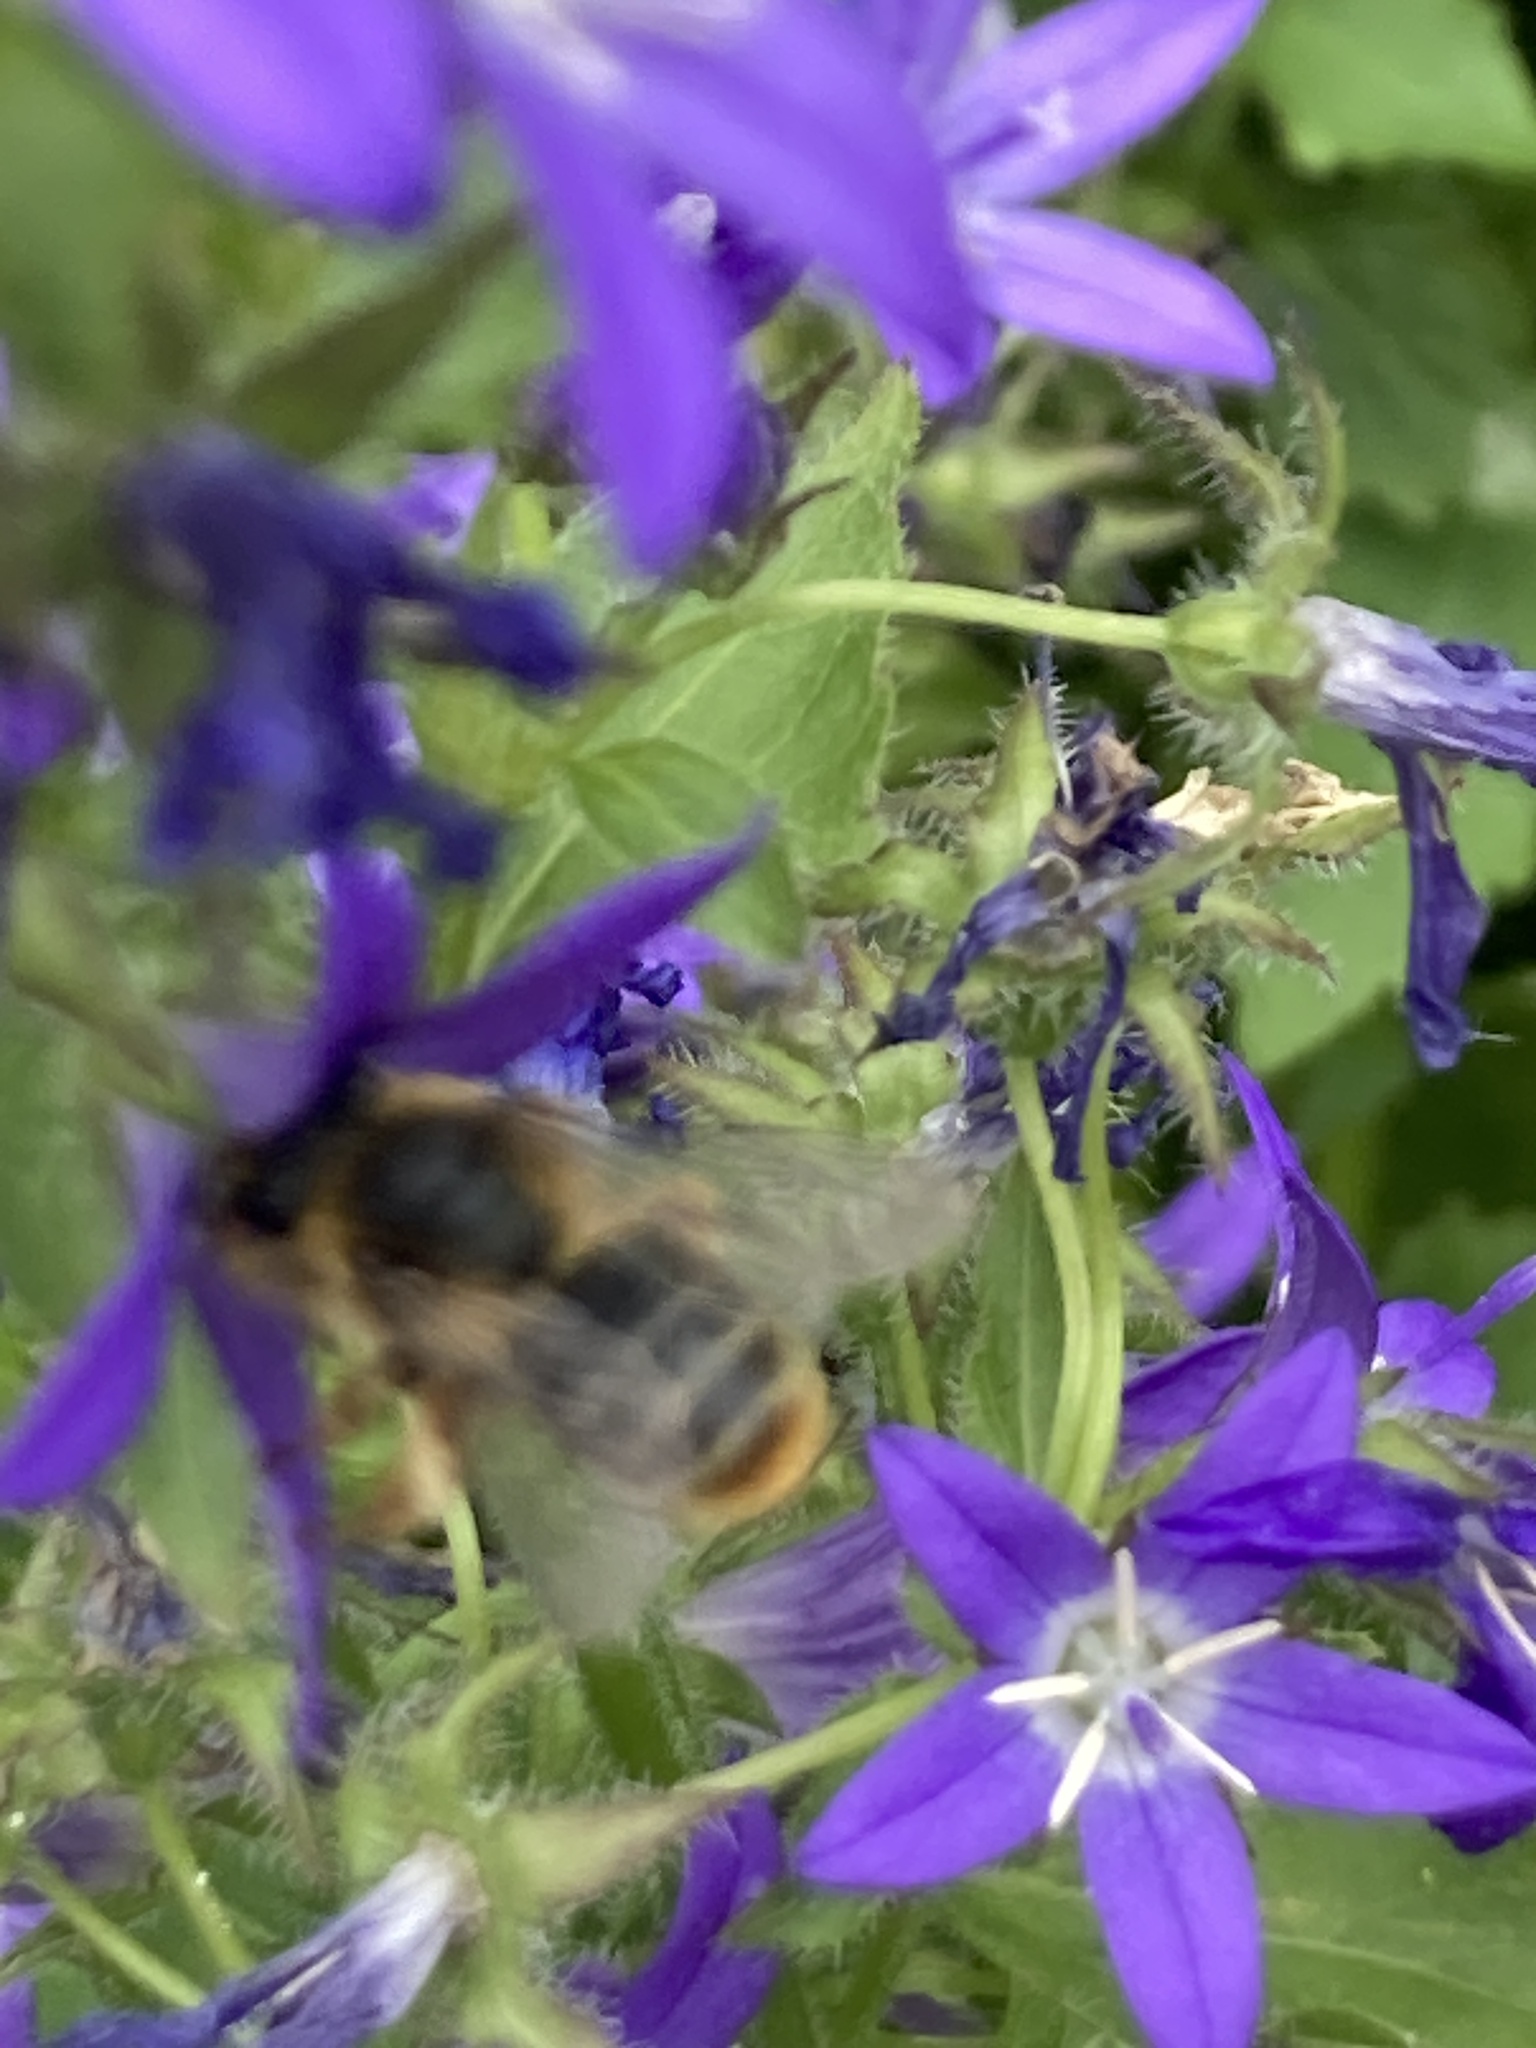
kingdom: Animalia
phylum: Arthropoda
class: Insecta
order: Hymenoptera
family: Melittidae
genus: Melitta
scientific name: Melitta haemorrhoidalis
